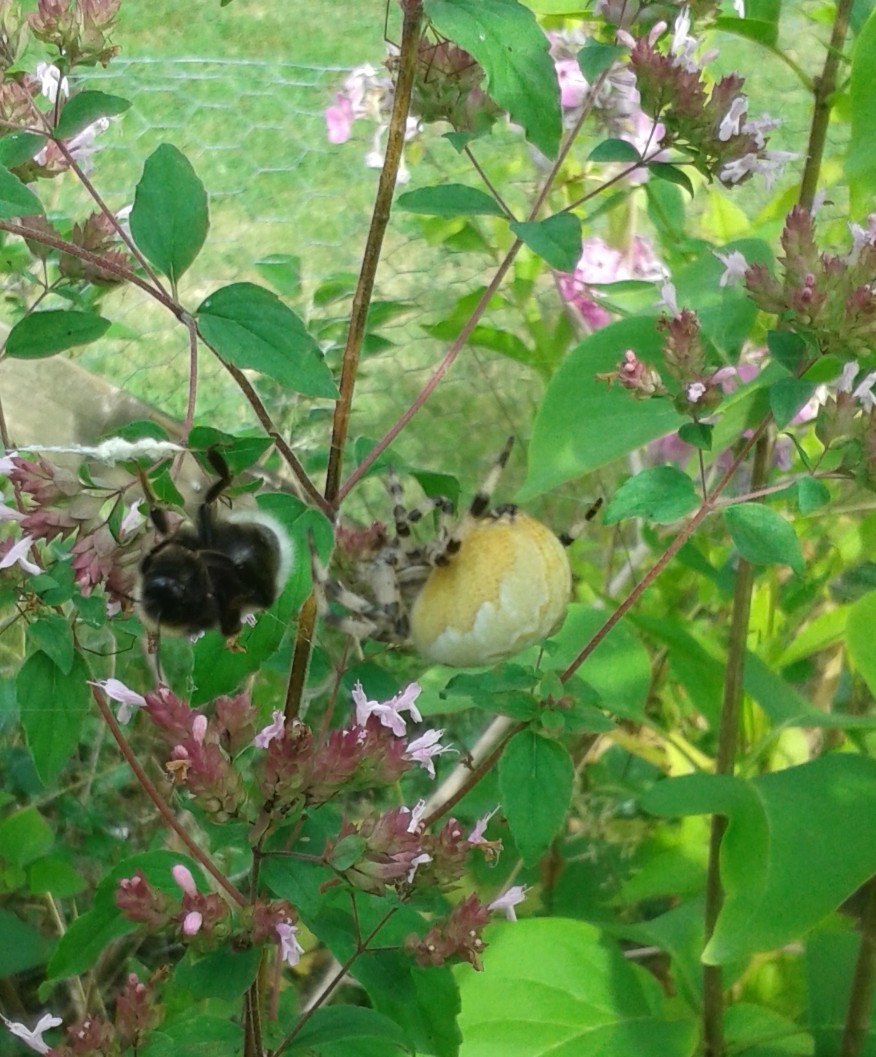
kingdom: Animalia
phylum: Arthropoda
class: Arachnida
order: Araneae
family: Araneidae
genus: Araneus
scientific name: Araneus quadratus
